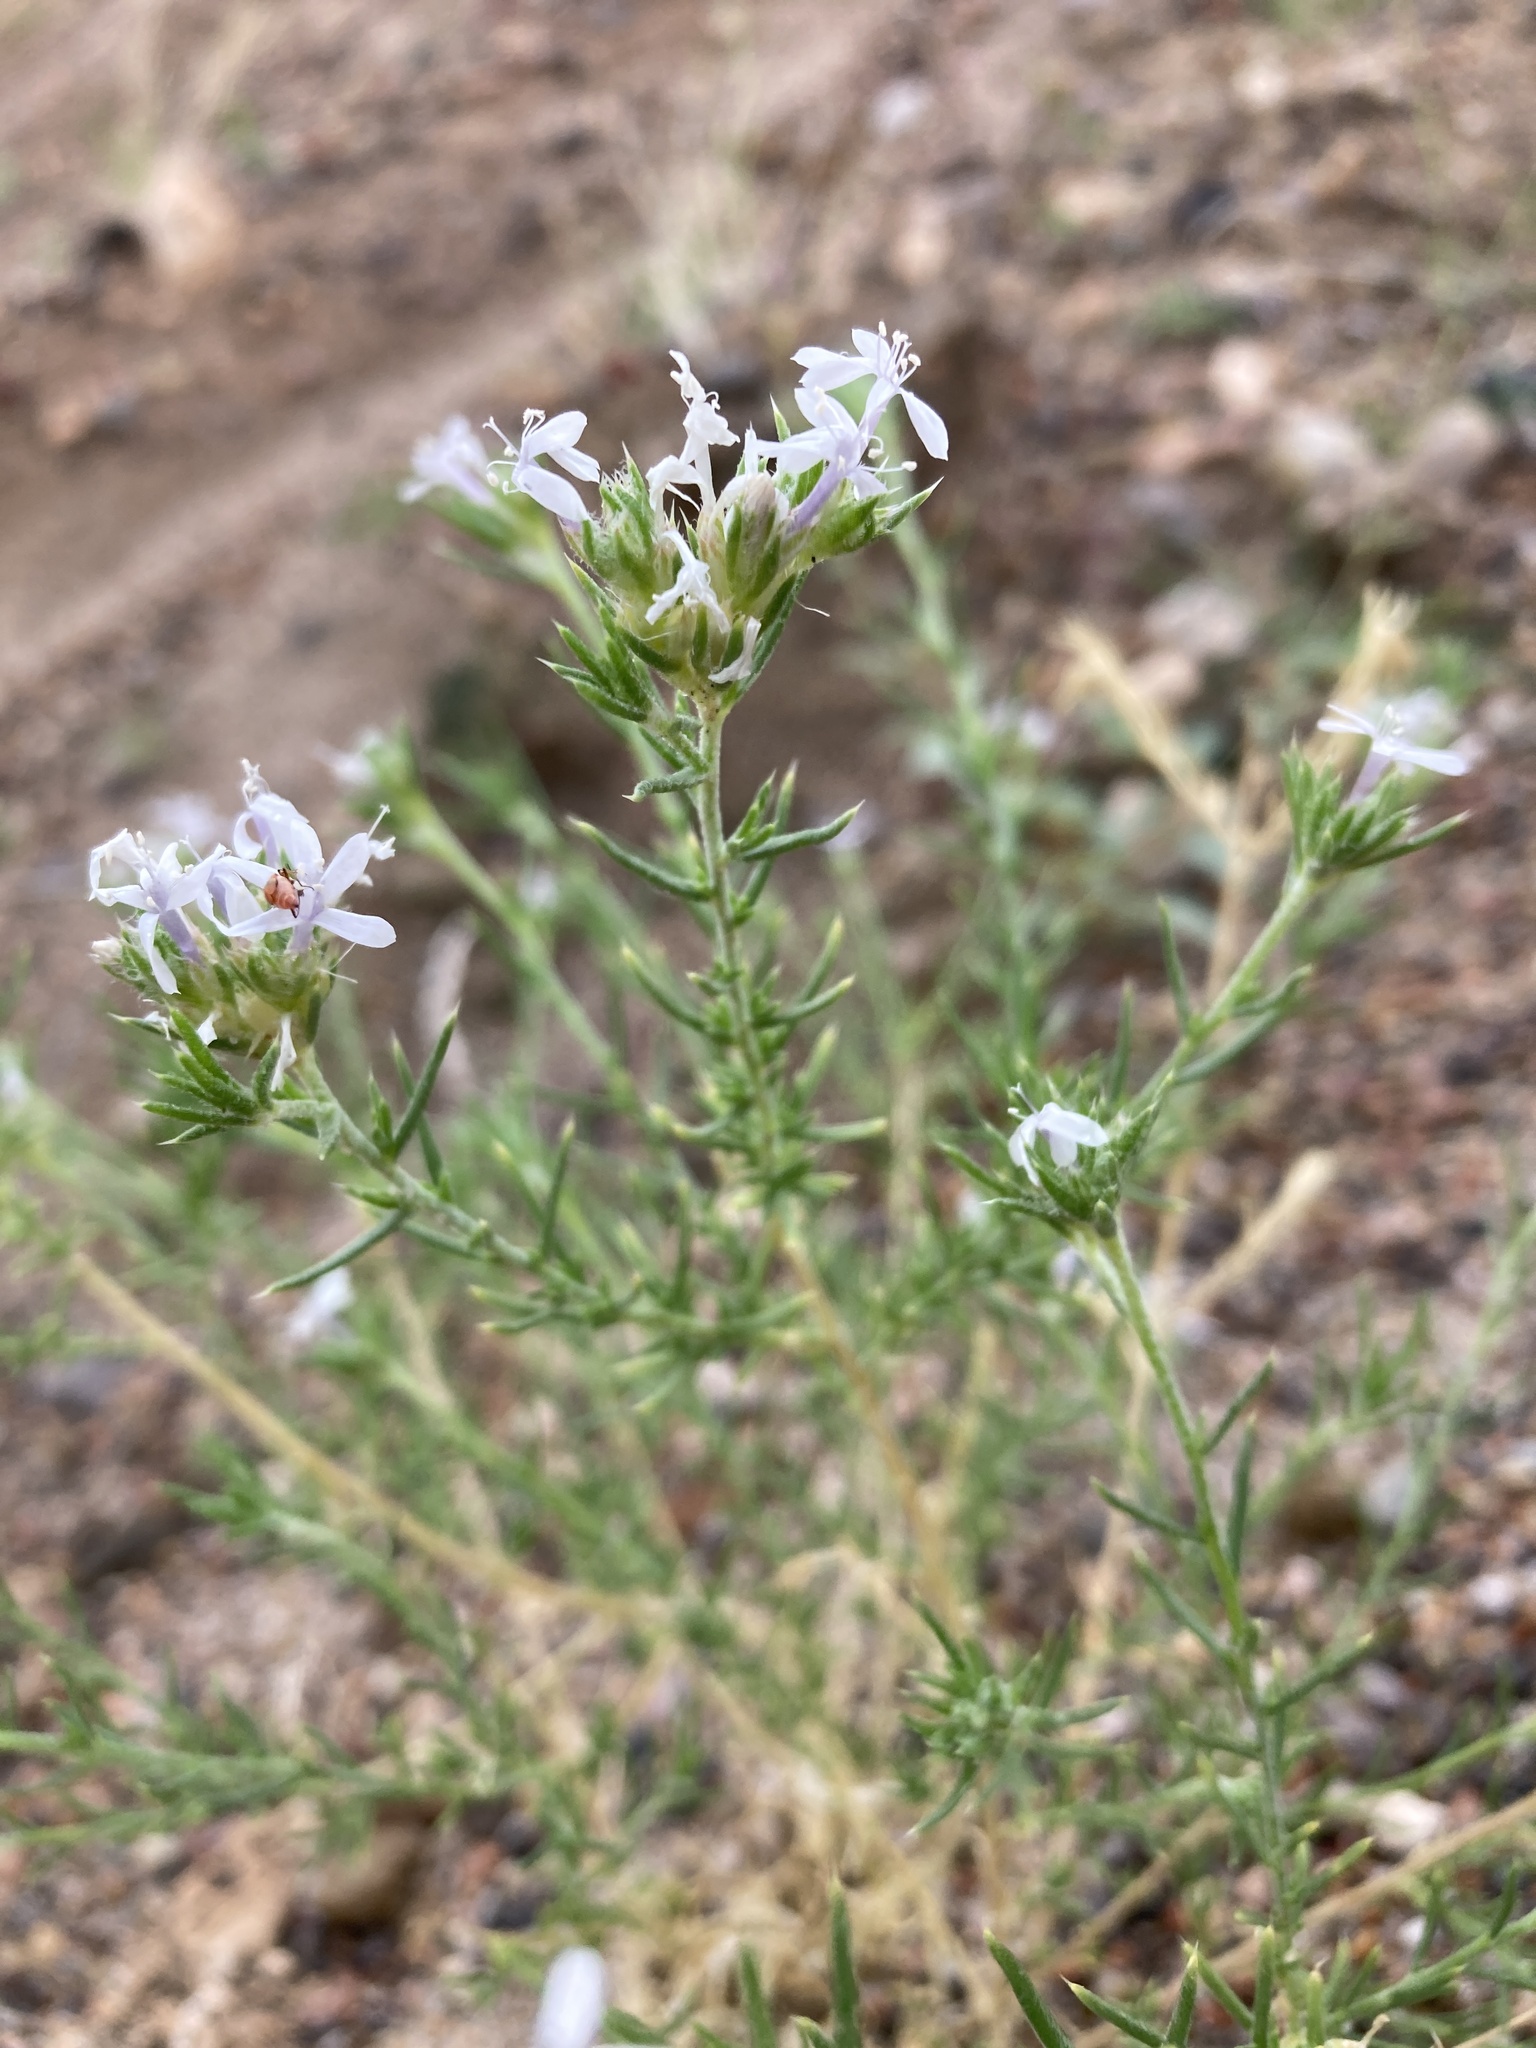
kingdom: Plantae
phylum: Tracheophyta
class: Magnoliopsida
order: Ericales
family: Polemoniaceae
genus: Ipomopsis
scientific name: Ipomopsis wrightii
